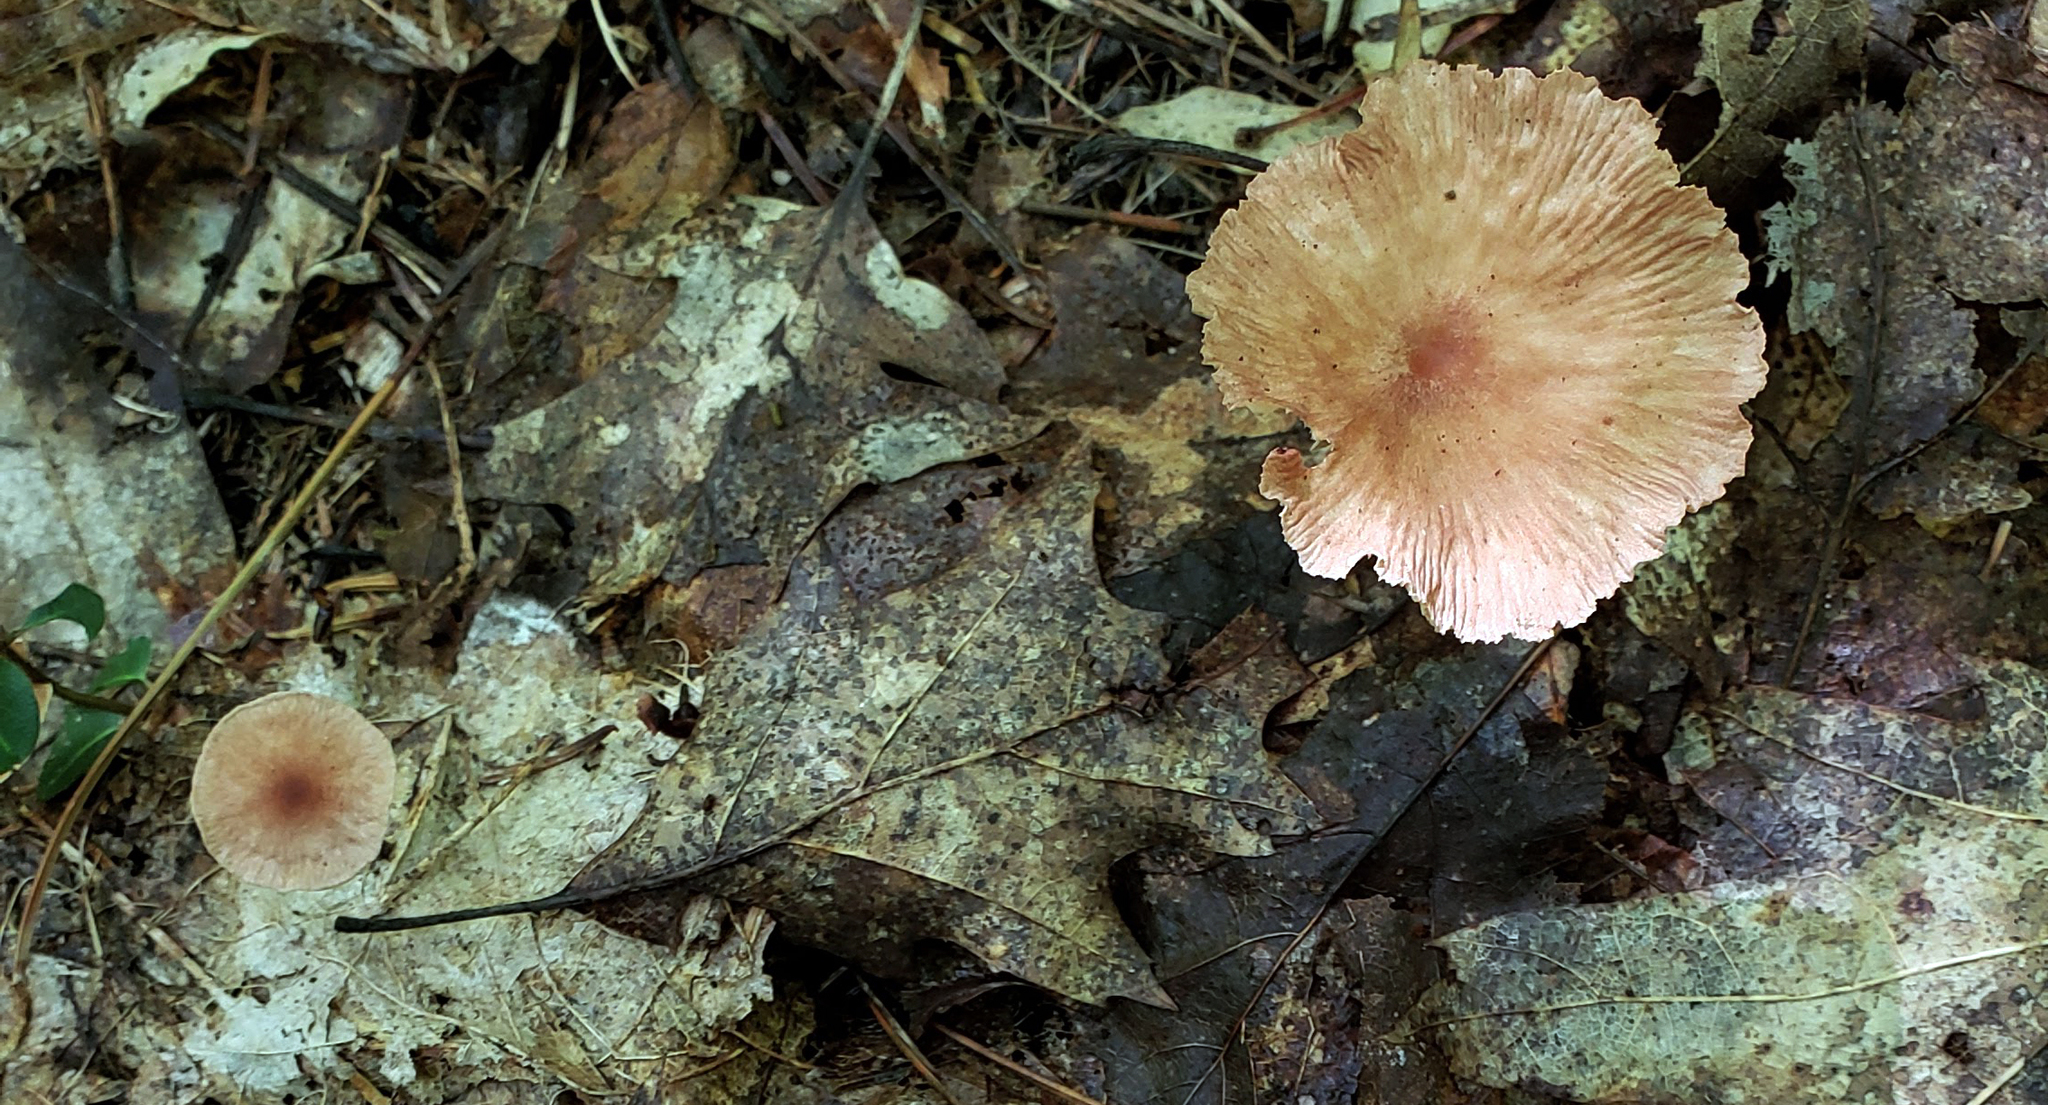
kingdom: Fungi
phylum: Basidiomycota
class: Agaricomycetes
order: Agaricales
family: Omphalotaceae
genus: Collybiopsis
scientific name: Collybiopsis subnuda
